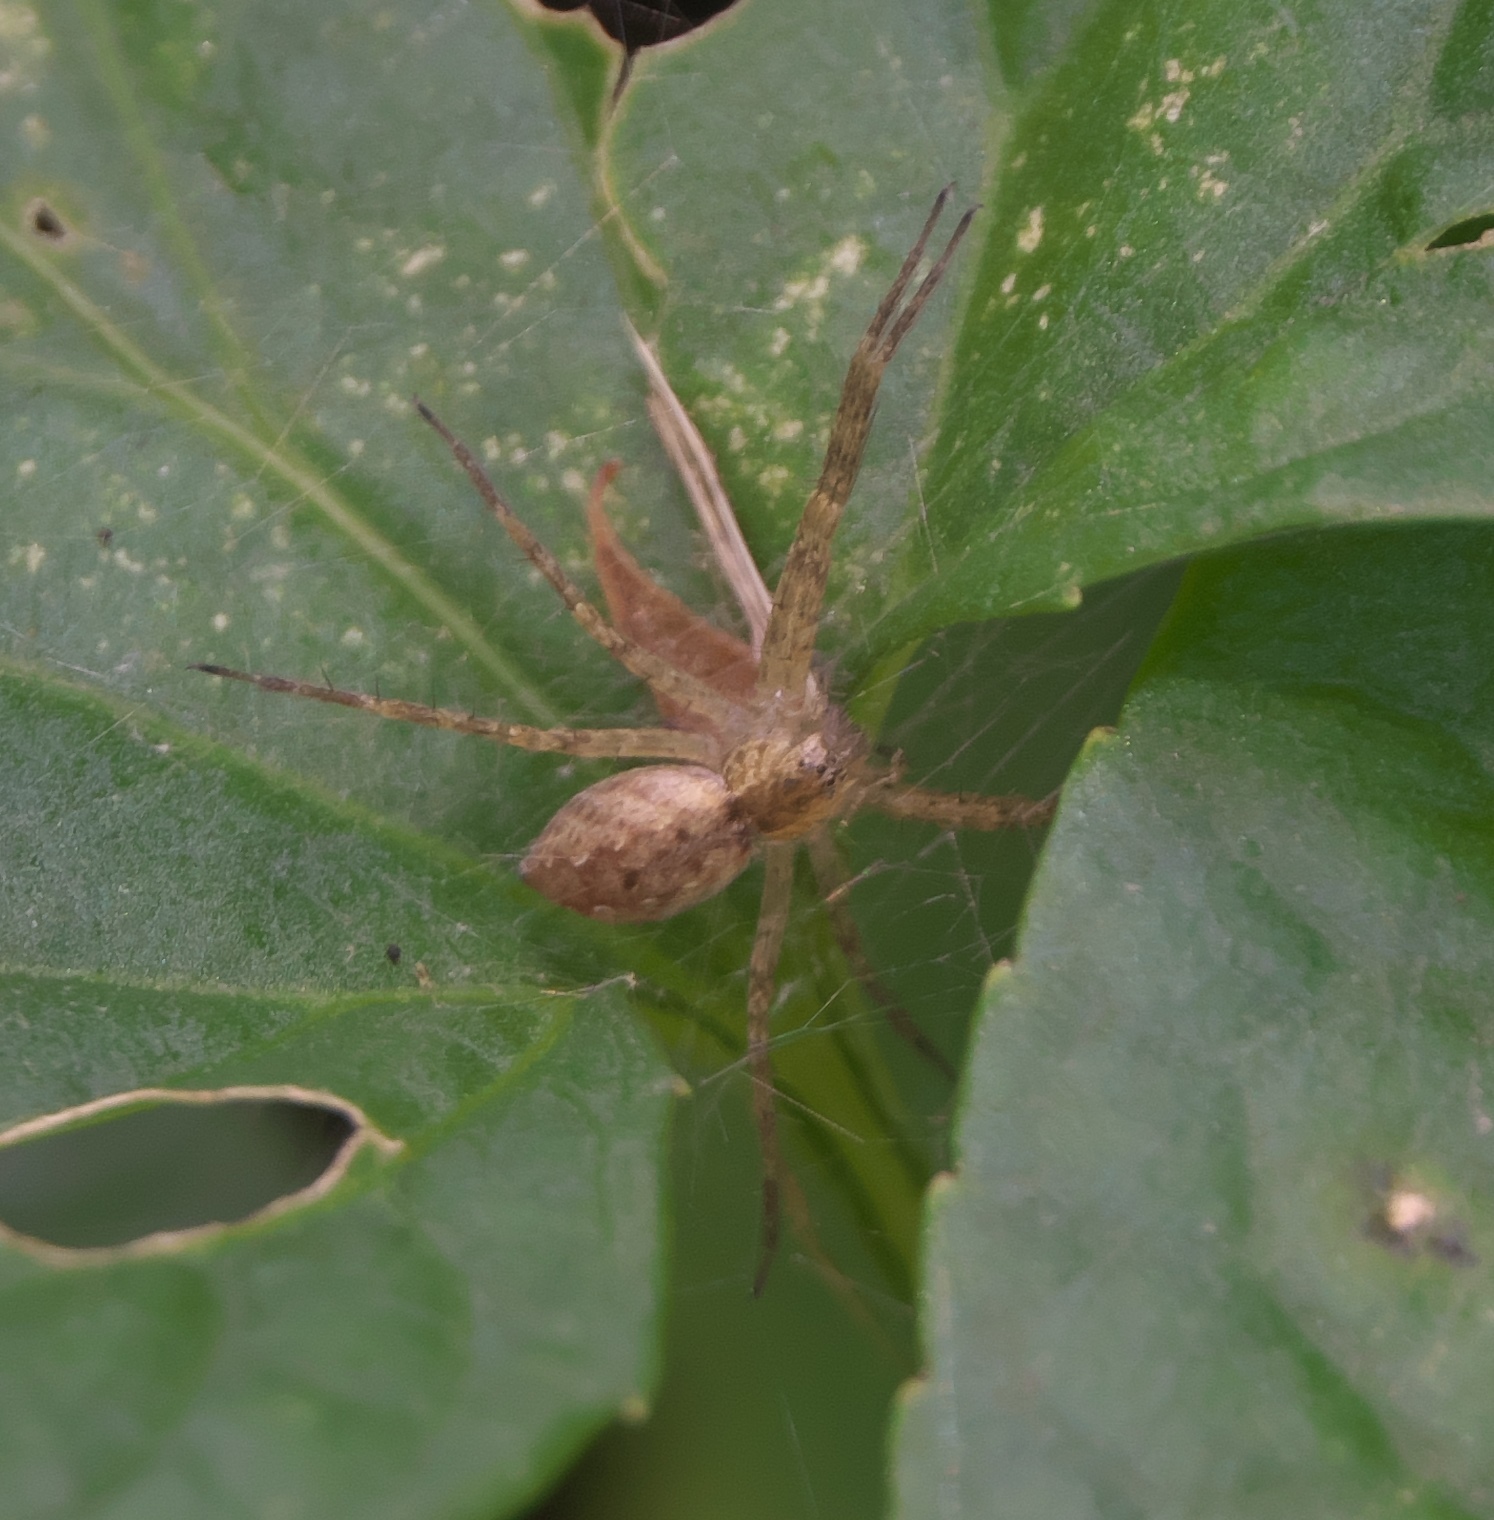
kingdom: Animalia
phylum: Arthropoda
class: Arachnida
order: Araneae
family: Pisauridae
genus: Pisaurina
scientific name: Pisaurina mira
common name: American nursery web spider
